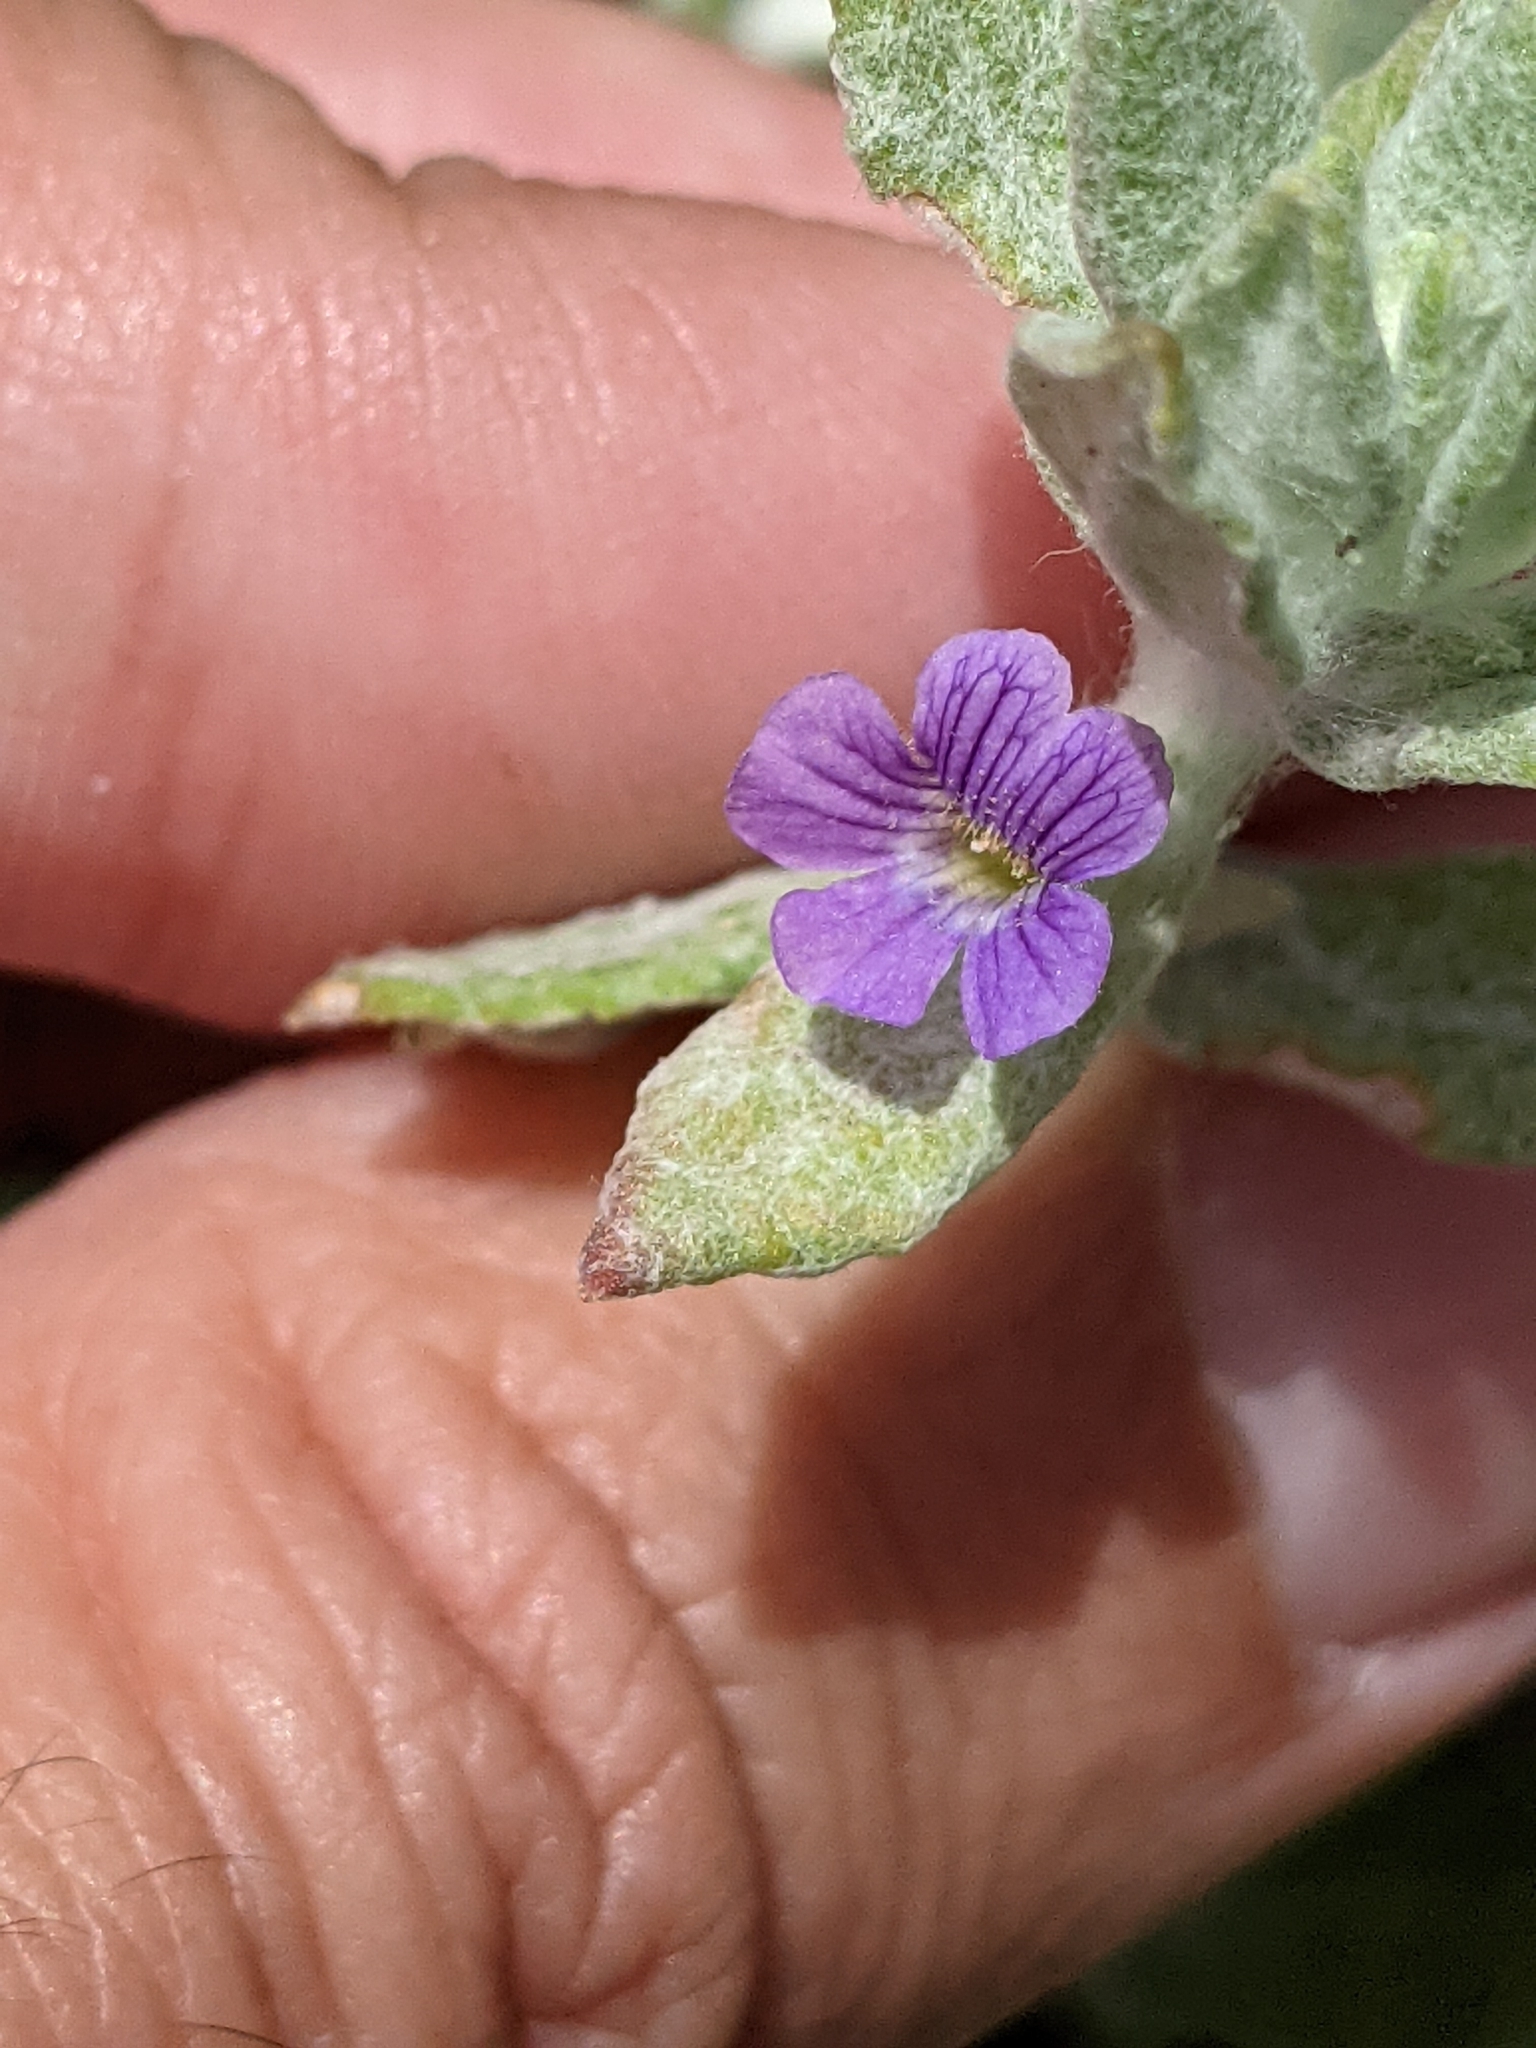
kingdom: Plantae
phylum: Tracheophyta
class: Magnoliopsida
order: Lamiales
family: Plantaginaceae
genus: Stemodia
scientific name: Stemodia lanata
